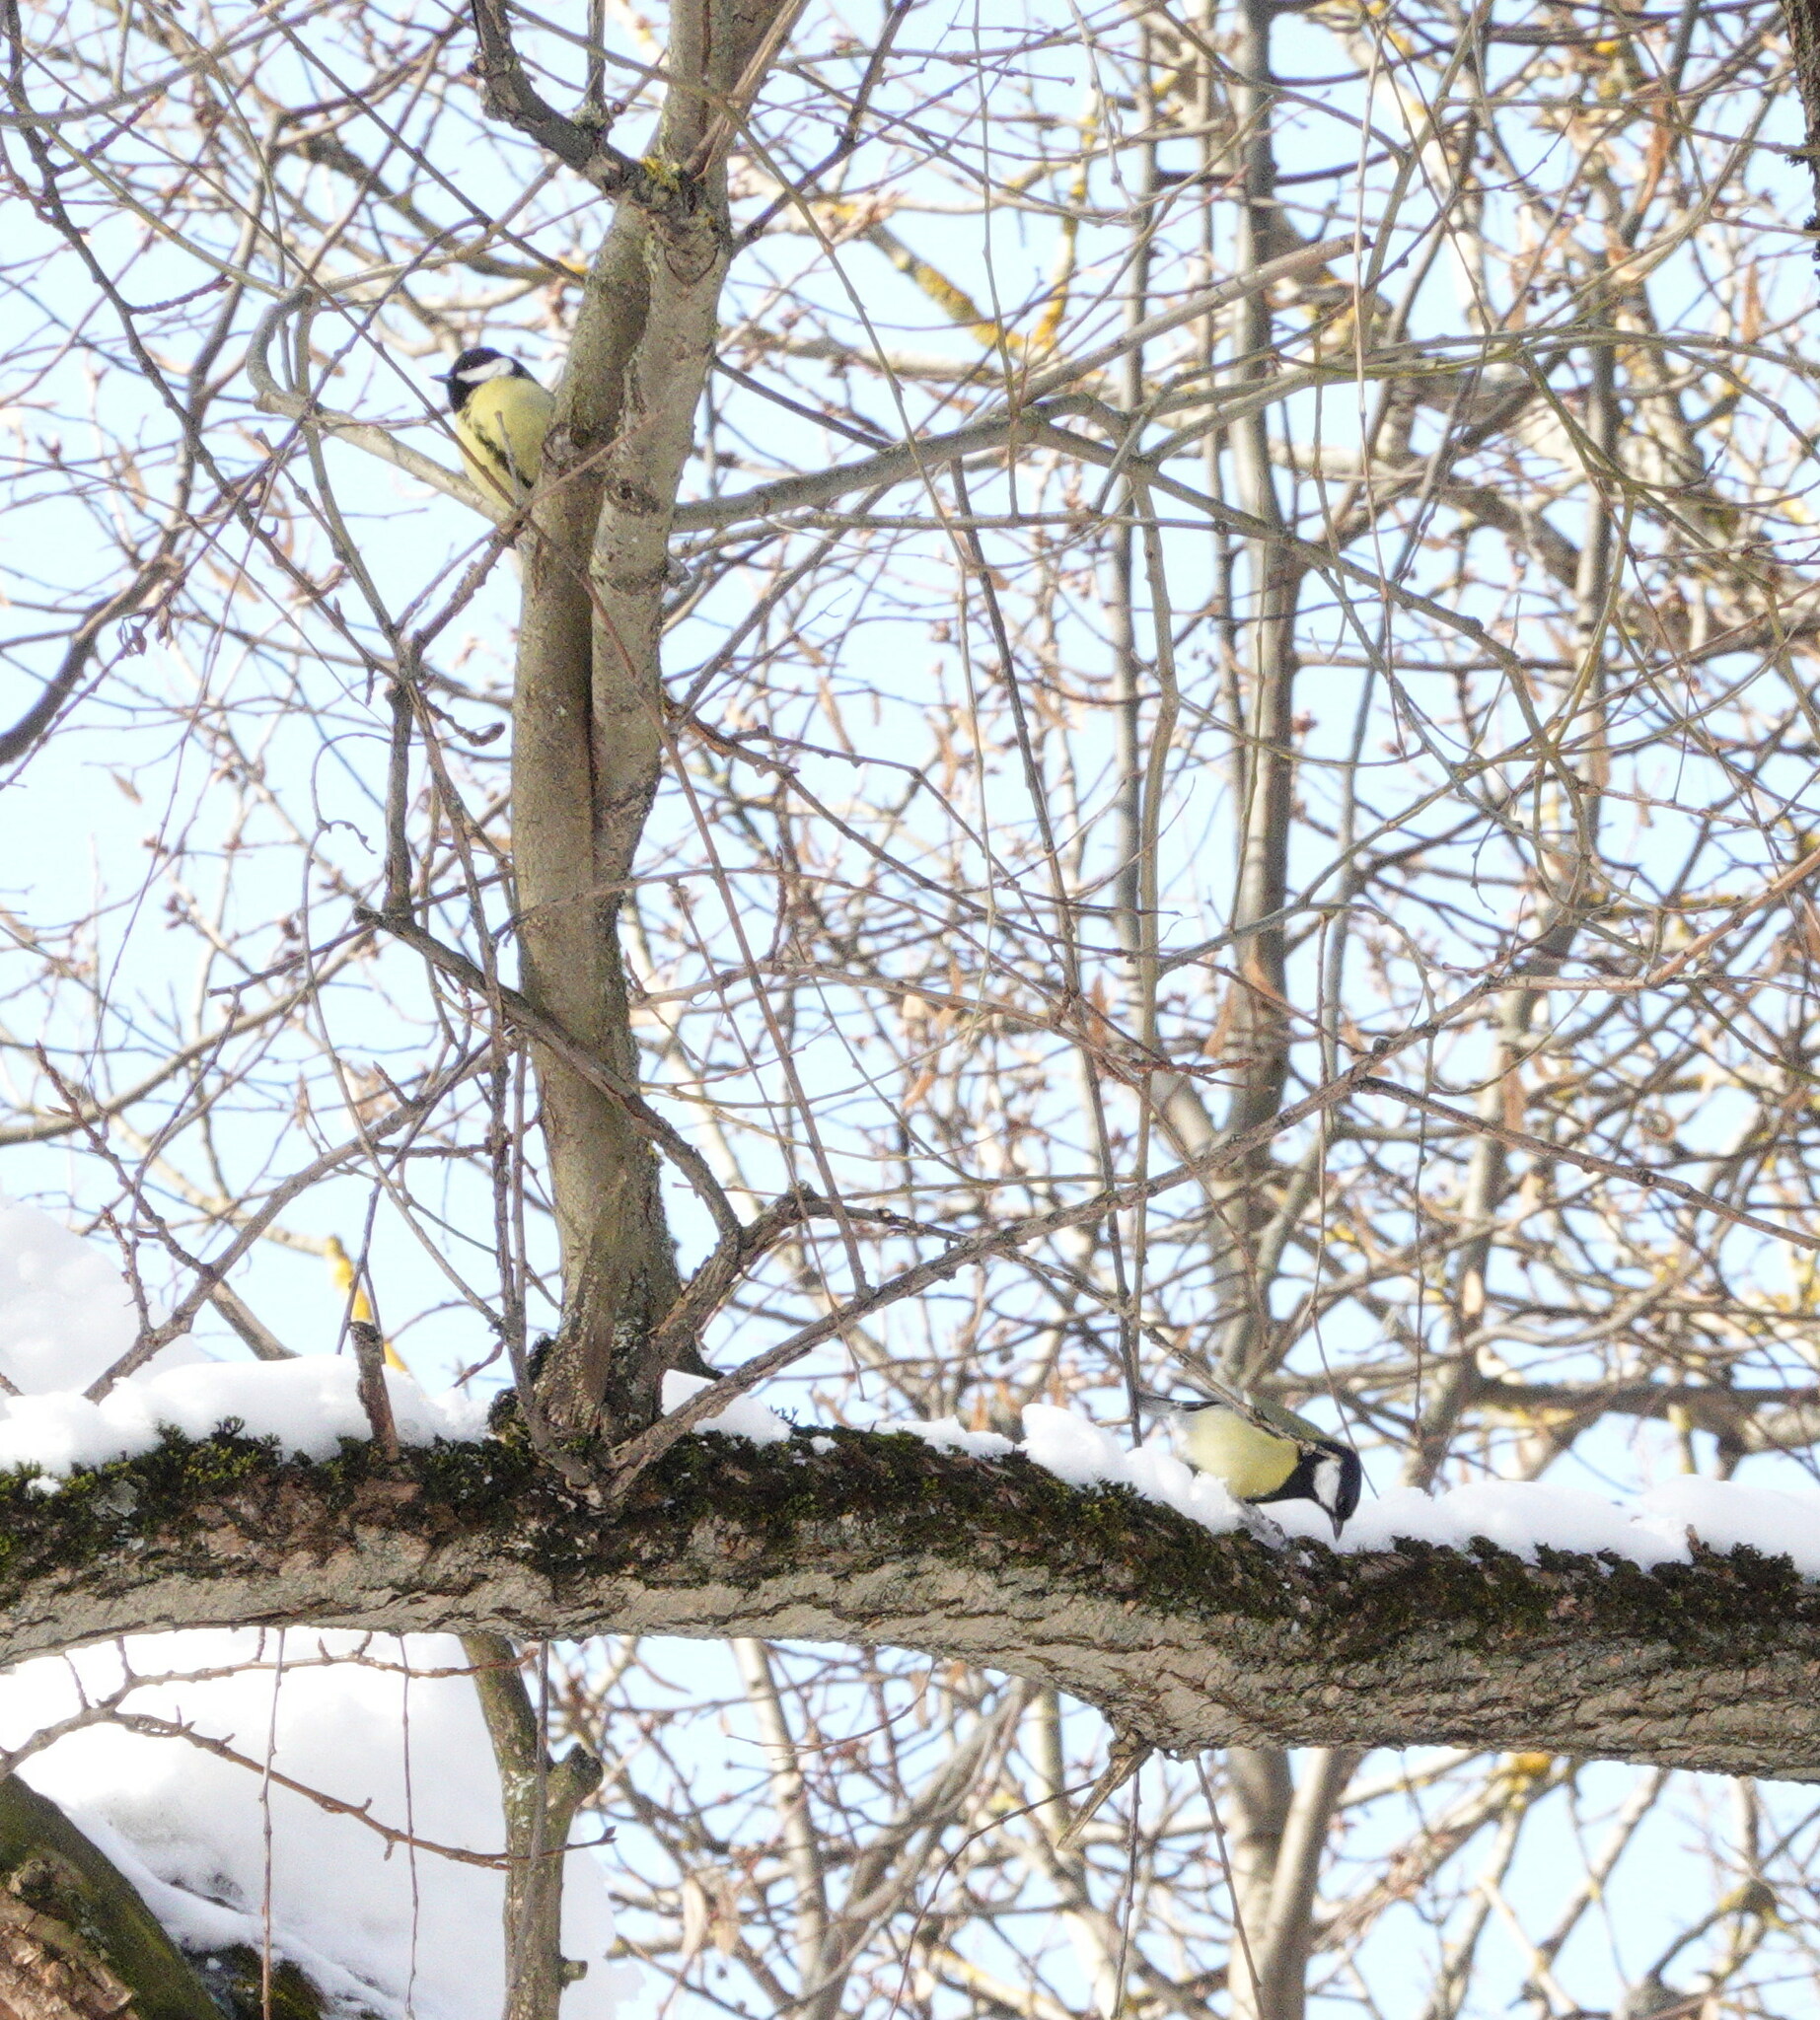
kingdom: Animalia
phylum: Chordata
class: Aves
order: Passeriformes
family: Paridae
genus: Parus
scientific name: Parus major
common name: Great tit
